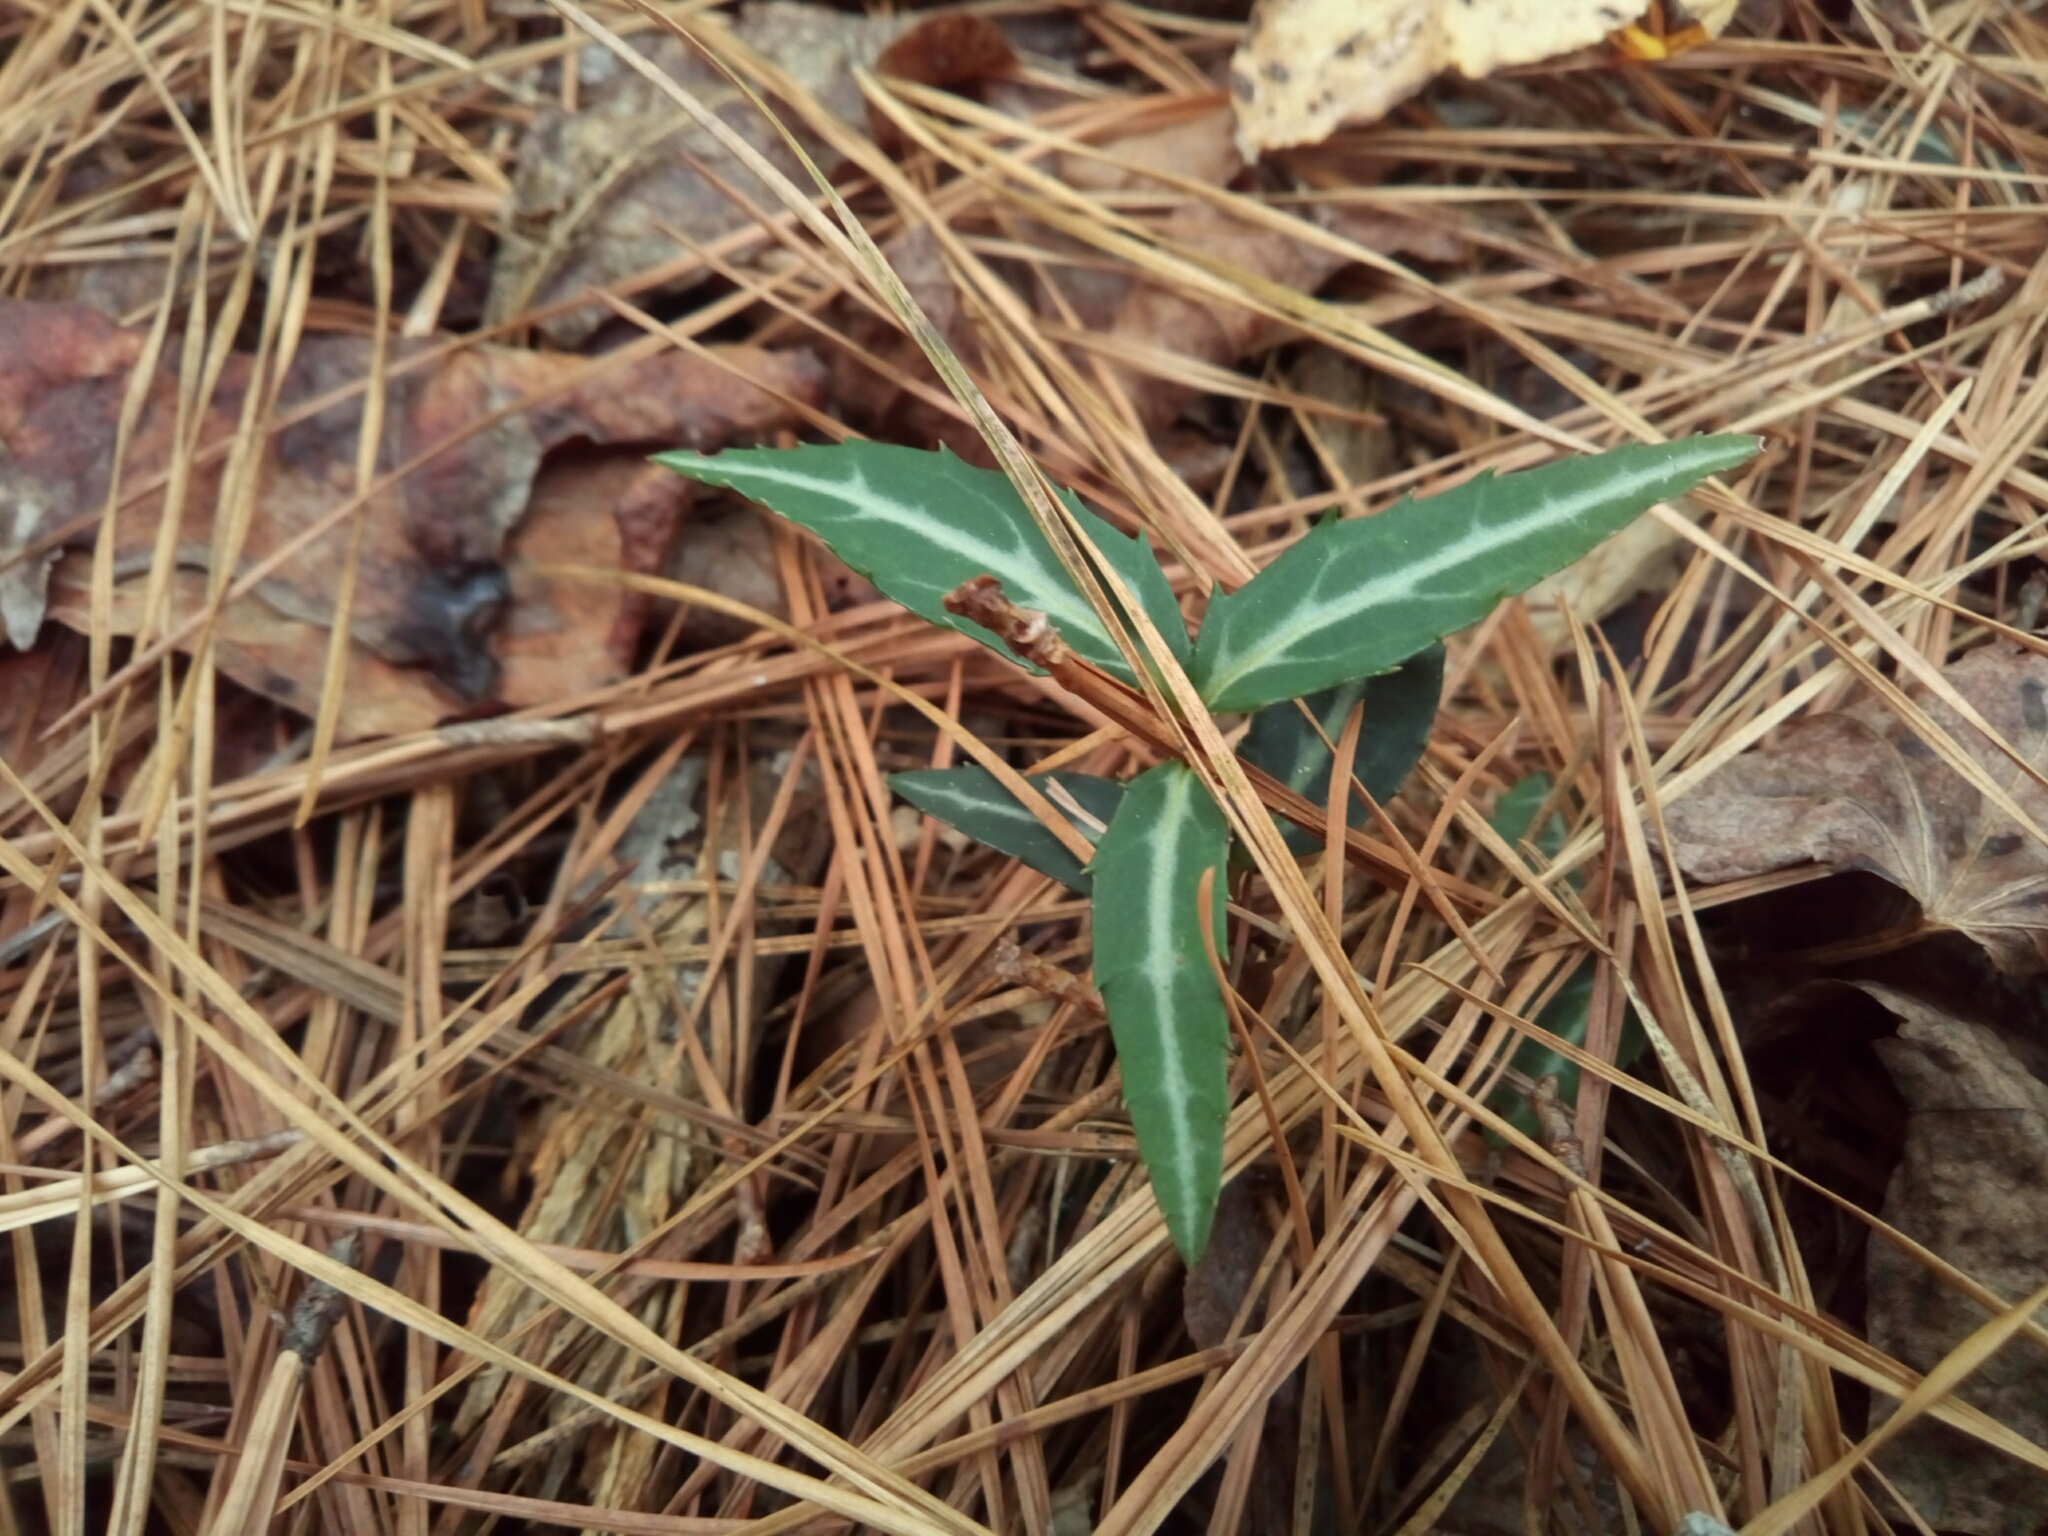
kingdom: Plantae
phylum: Tracheophyta
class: Magnoliopsida
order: Ericales
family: Ericaceae
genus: Chimaphila
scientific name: Chimaphila maculata
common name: Spotted pipsissewa
